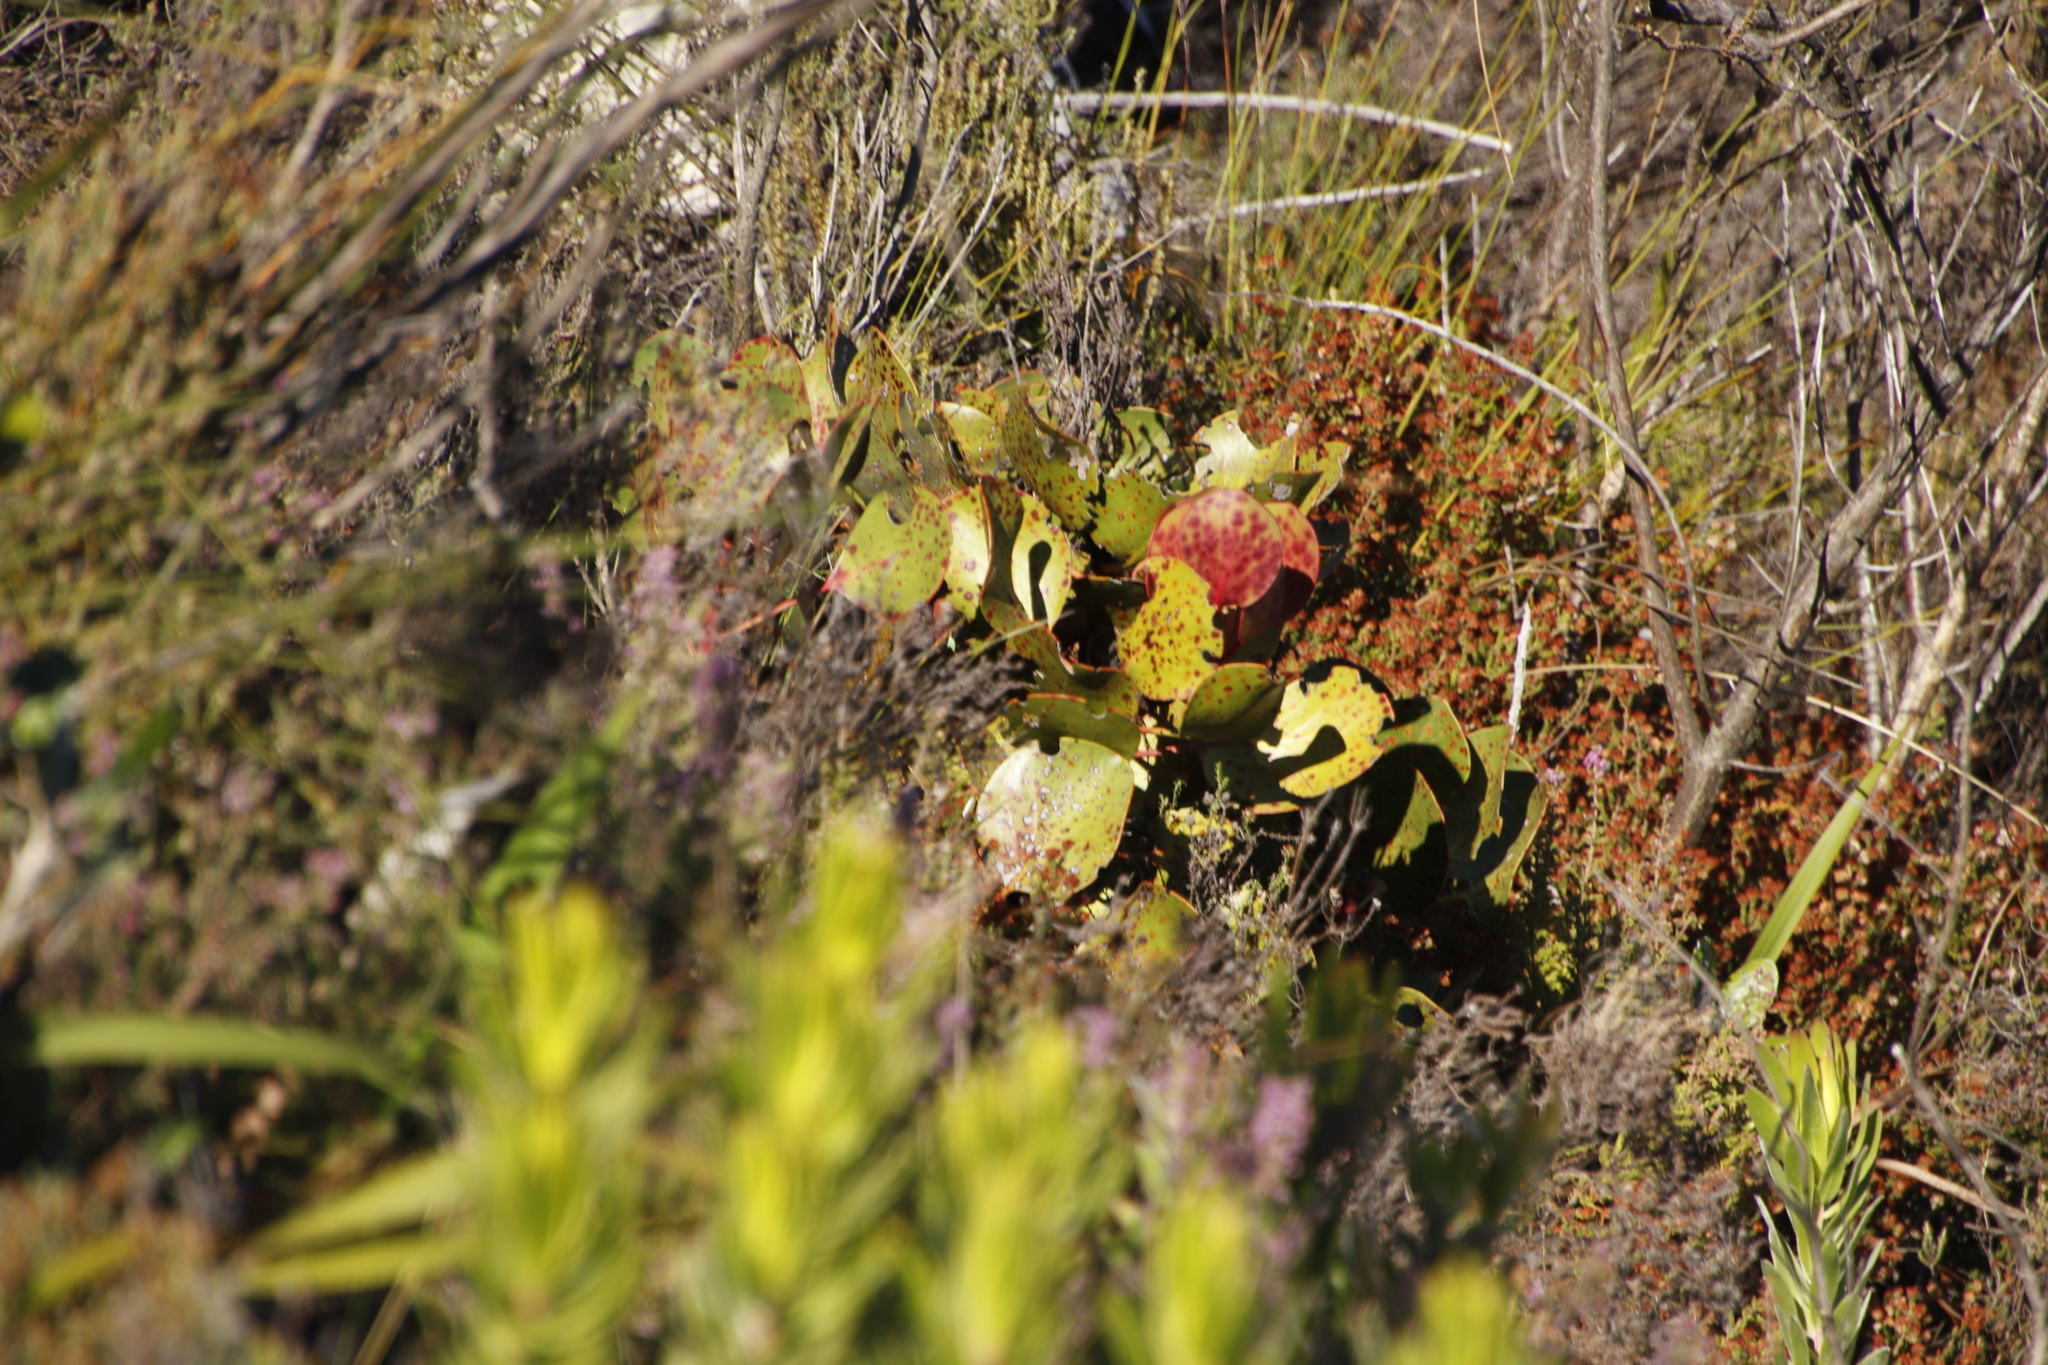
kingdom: Plantae
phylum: Tracheophyta
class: Magnoliopsida
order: Proteales
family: Proteaceae
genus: Protea
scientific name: Protea cynaroides
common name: King protea
